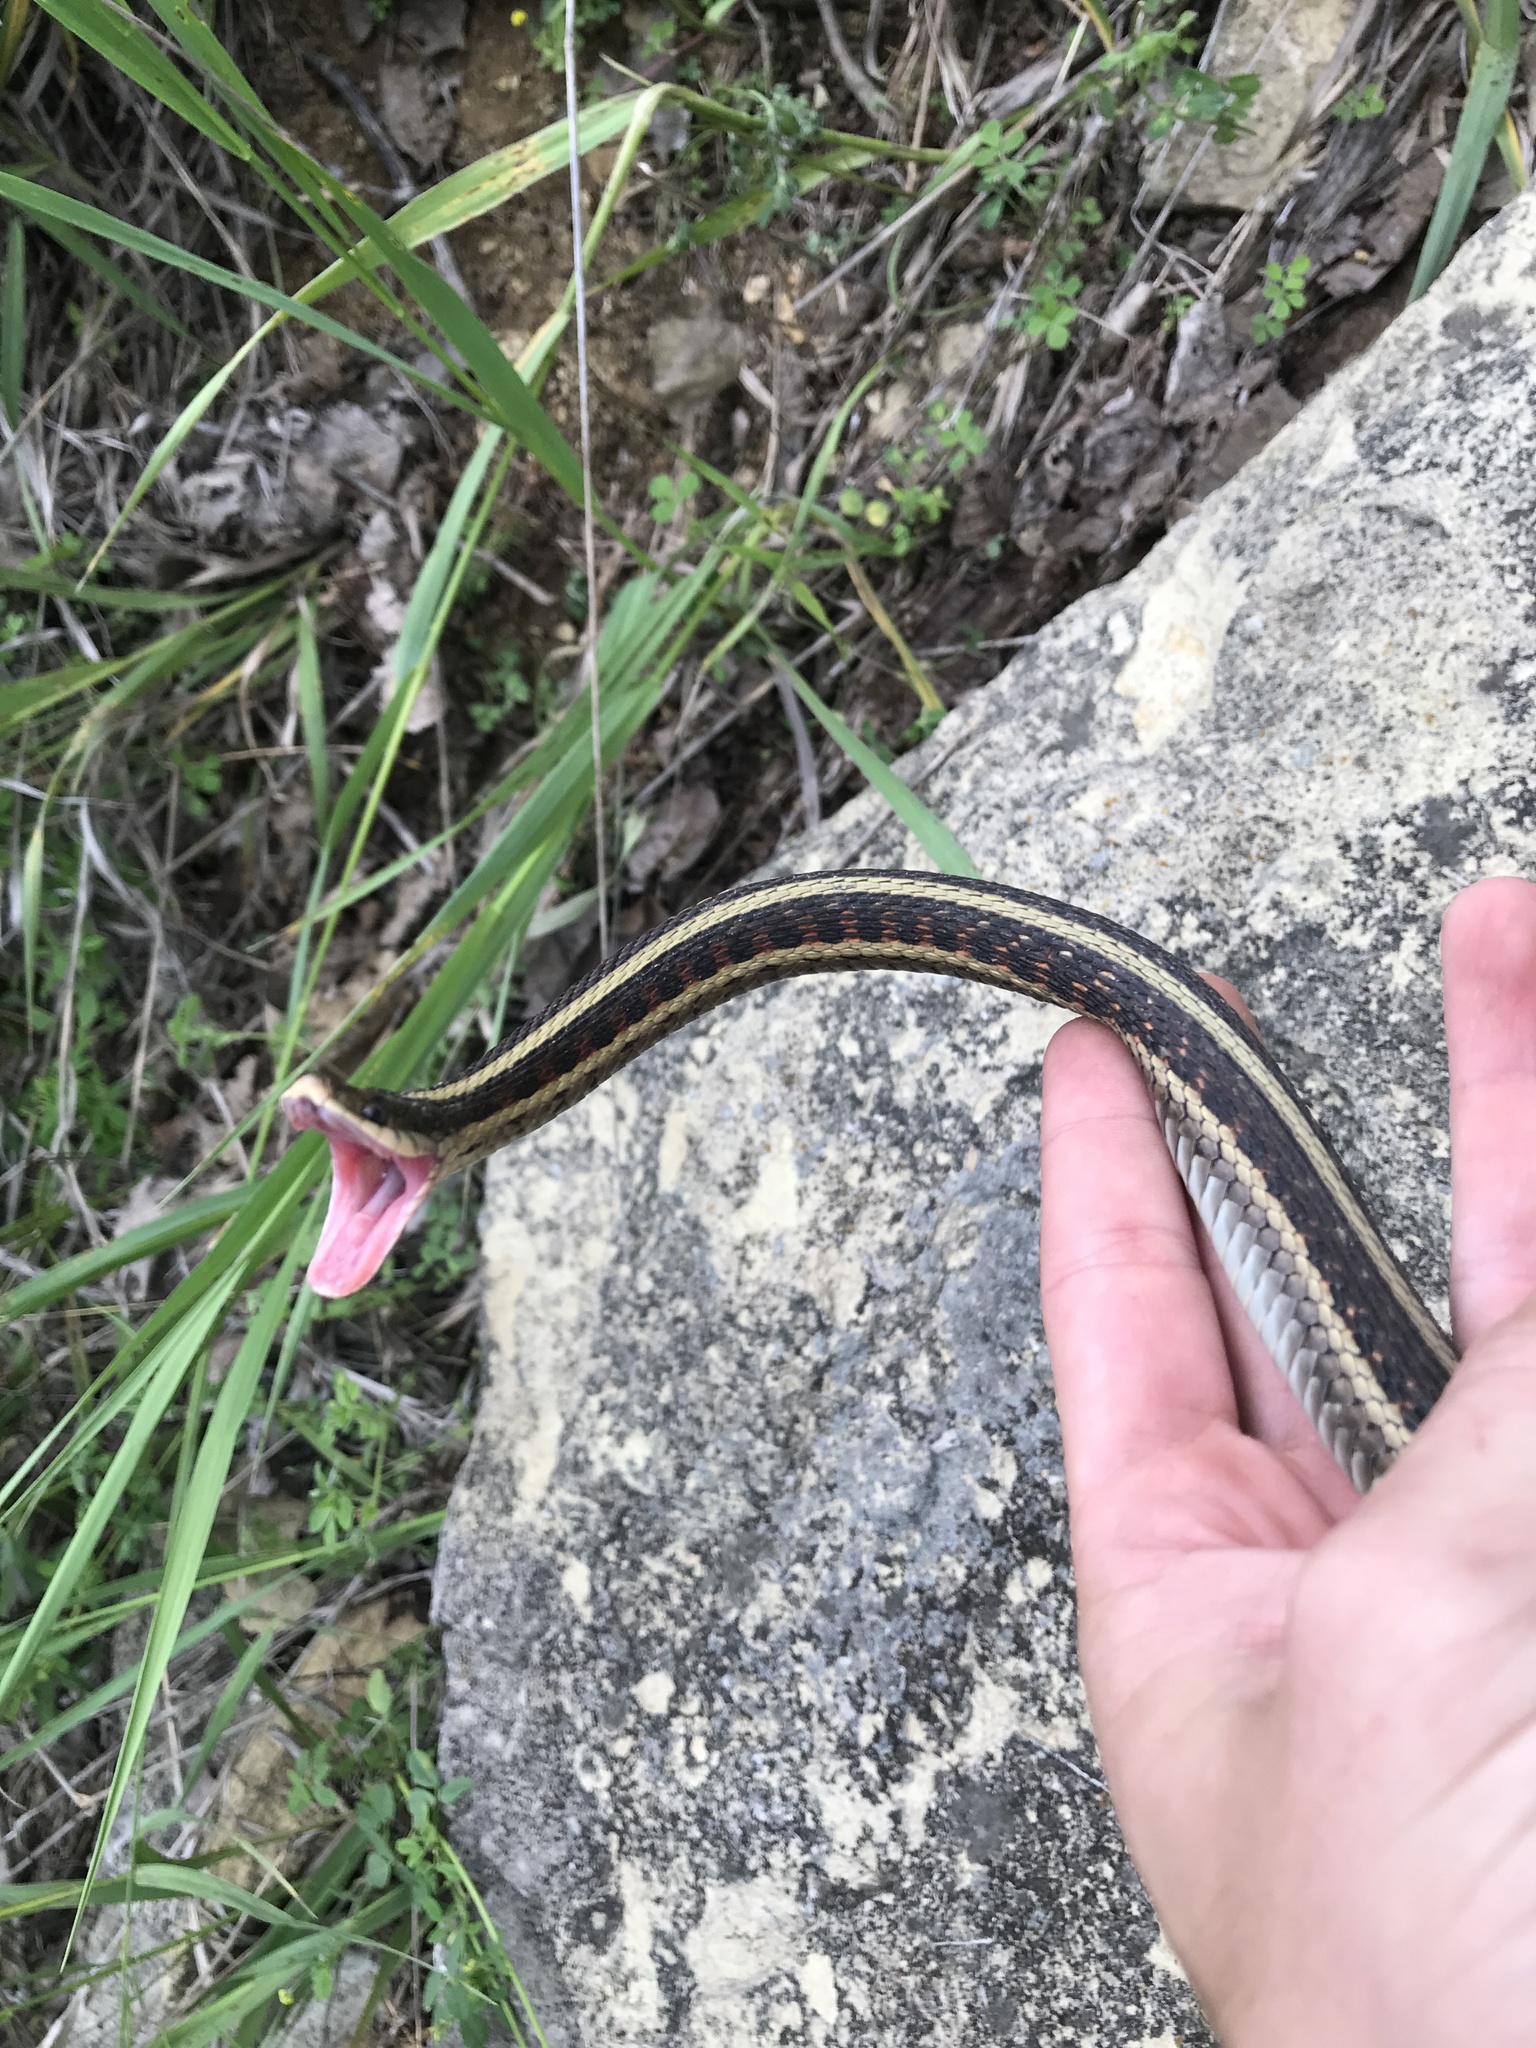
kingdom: Animalia
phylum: Chordata
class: Squamata
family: Colubridae
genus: Thamnophis
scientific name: Thamnophis sirtalis
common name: Common garter snake
